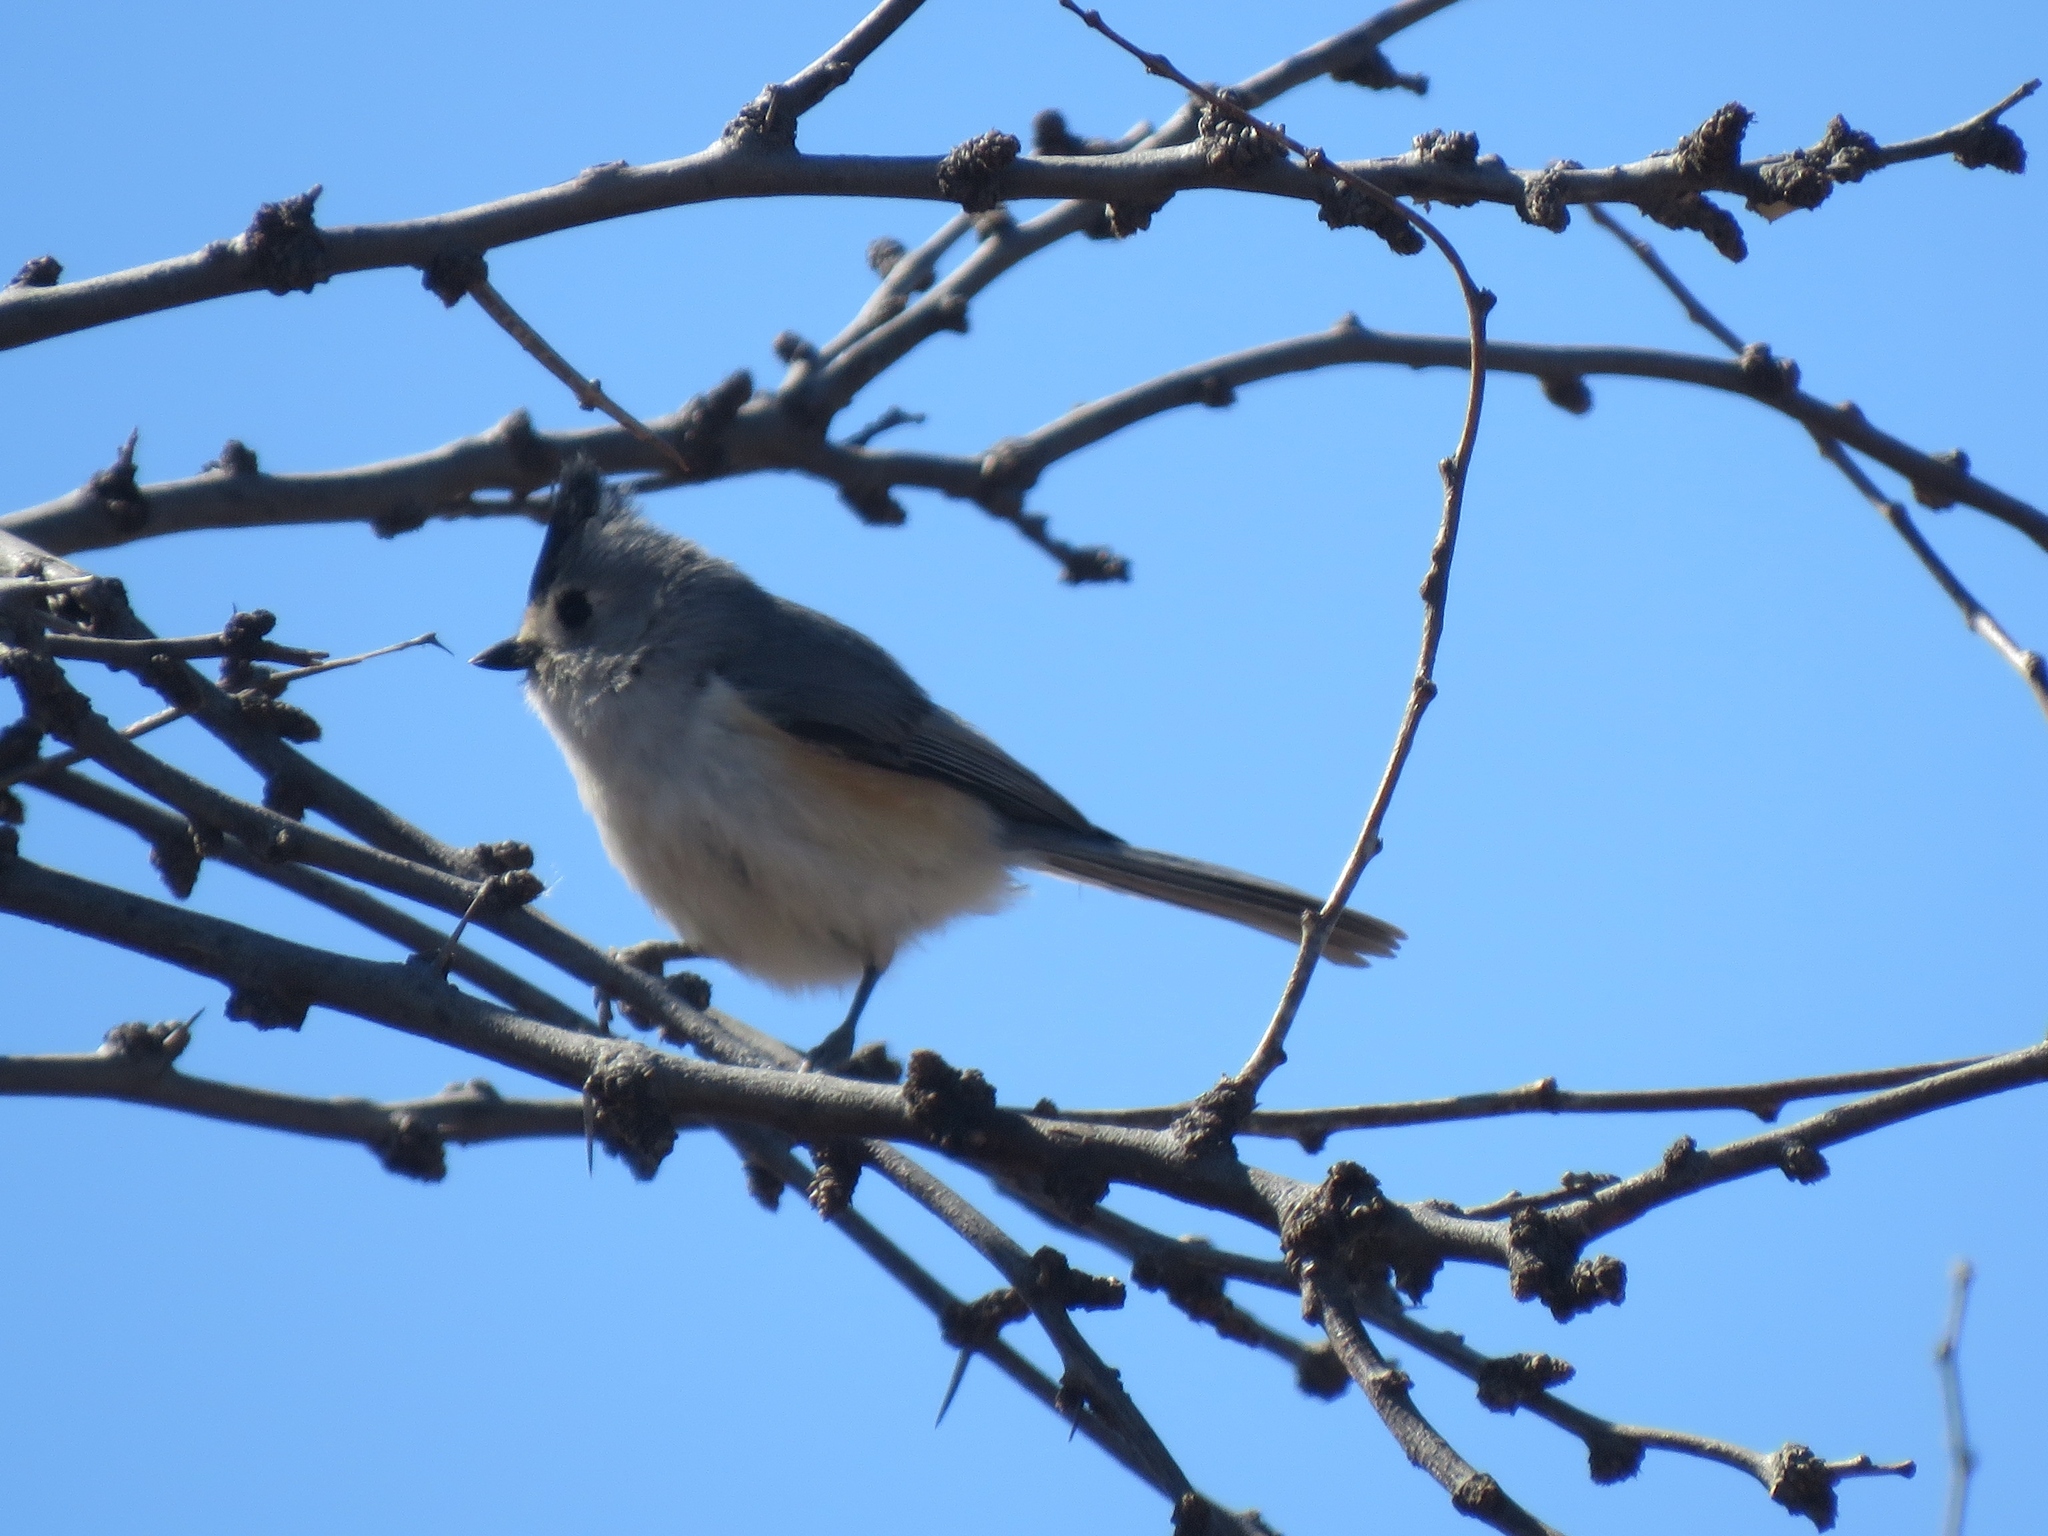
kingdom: Animalia
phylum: Chordata
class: Aves
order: Passeriformes
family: Paridae
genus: Baeolophus
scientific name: Baeolophus atricristatus
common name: Black-crested titmouse
